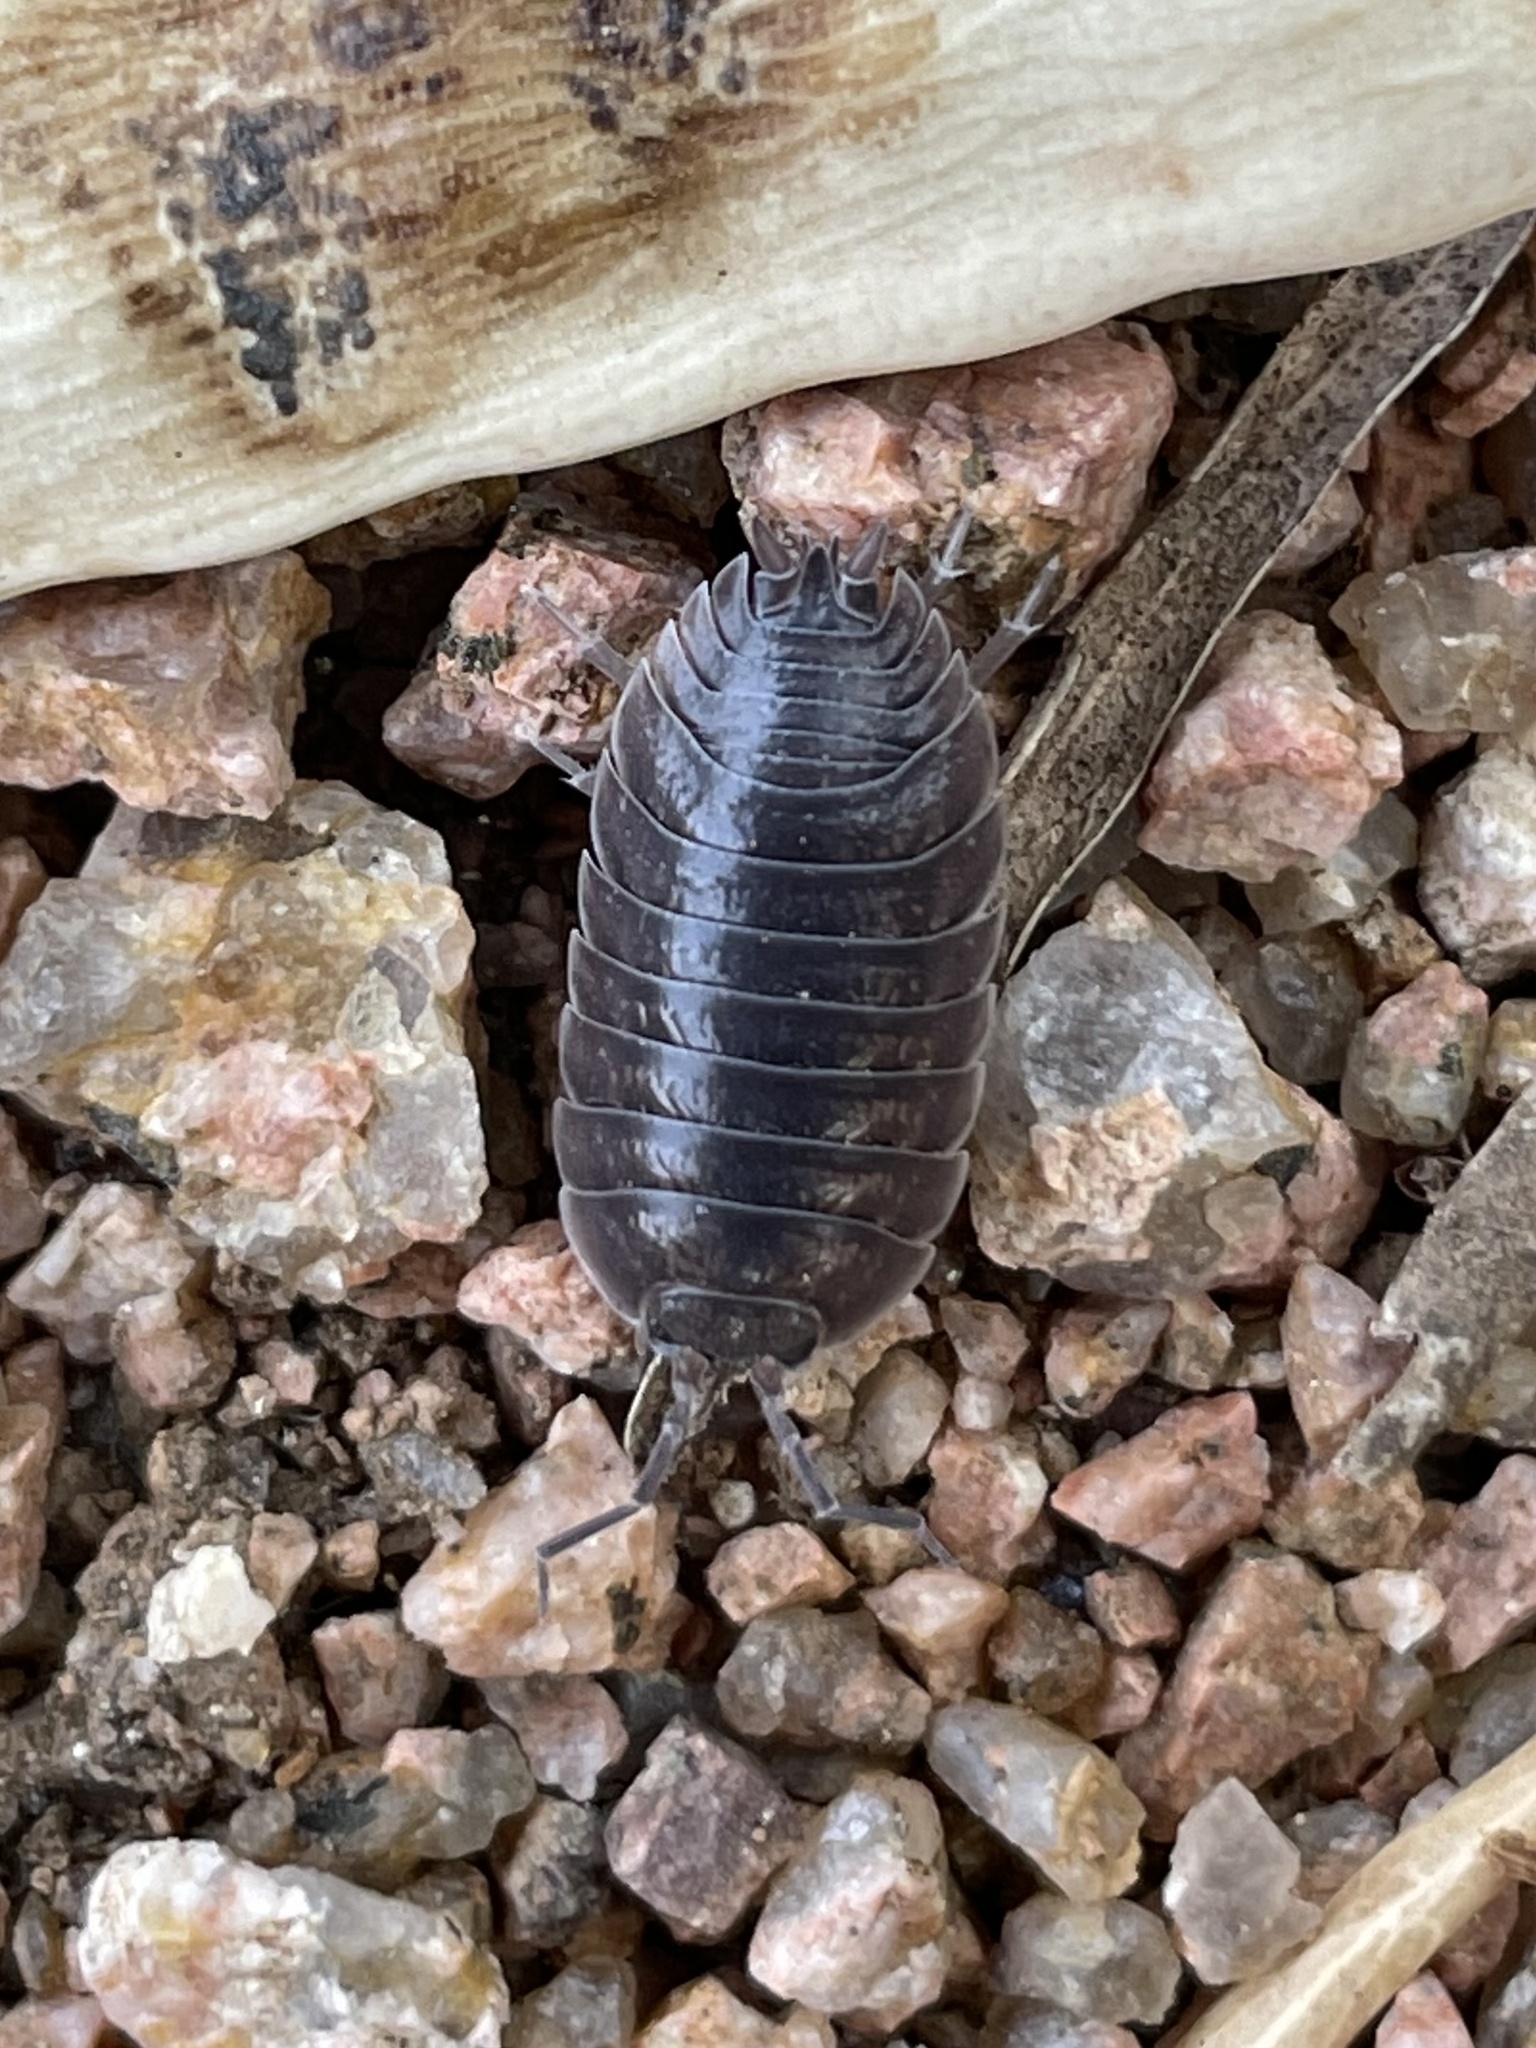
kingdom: Animalia
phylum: Arthropoda
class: Malacostraca
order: Isopoda
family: Porcellionidae
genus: Porcellio
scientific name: Porcellio laevis
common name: Swift woodlouse
